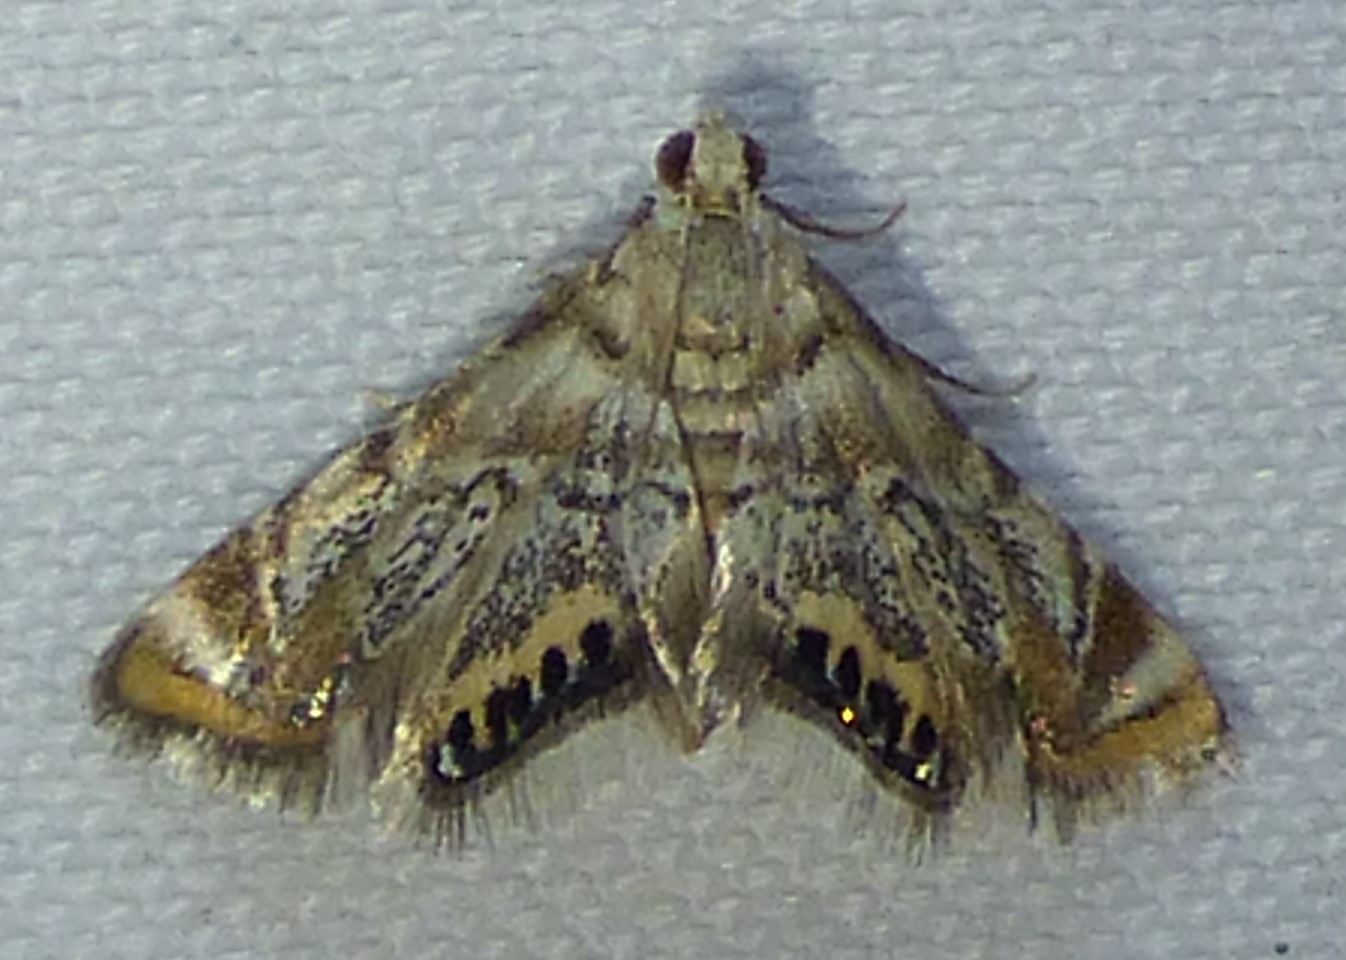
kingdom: Animalia
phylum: Arthropoda
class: Insecta
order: Lepidoptera
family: Crambidae
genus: Eoparargyractis
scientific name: Eoparargyractis irroratalis
